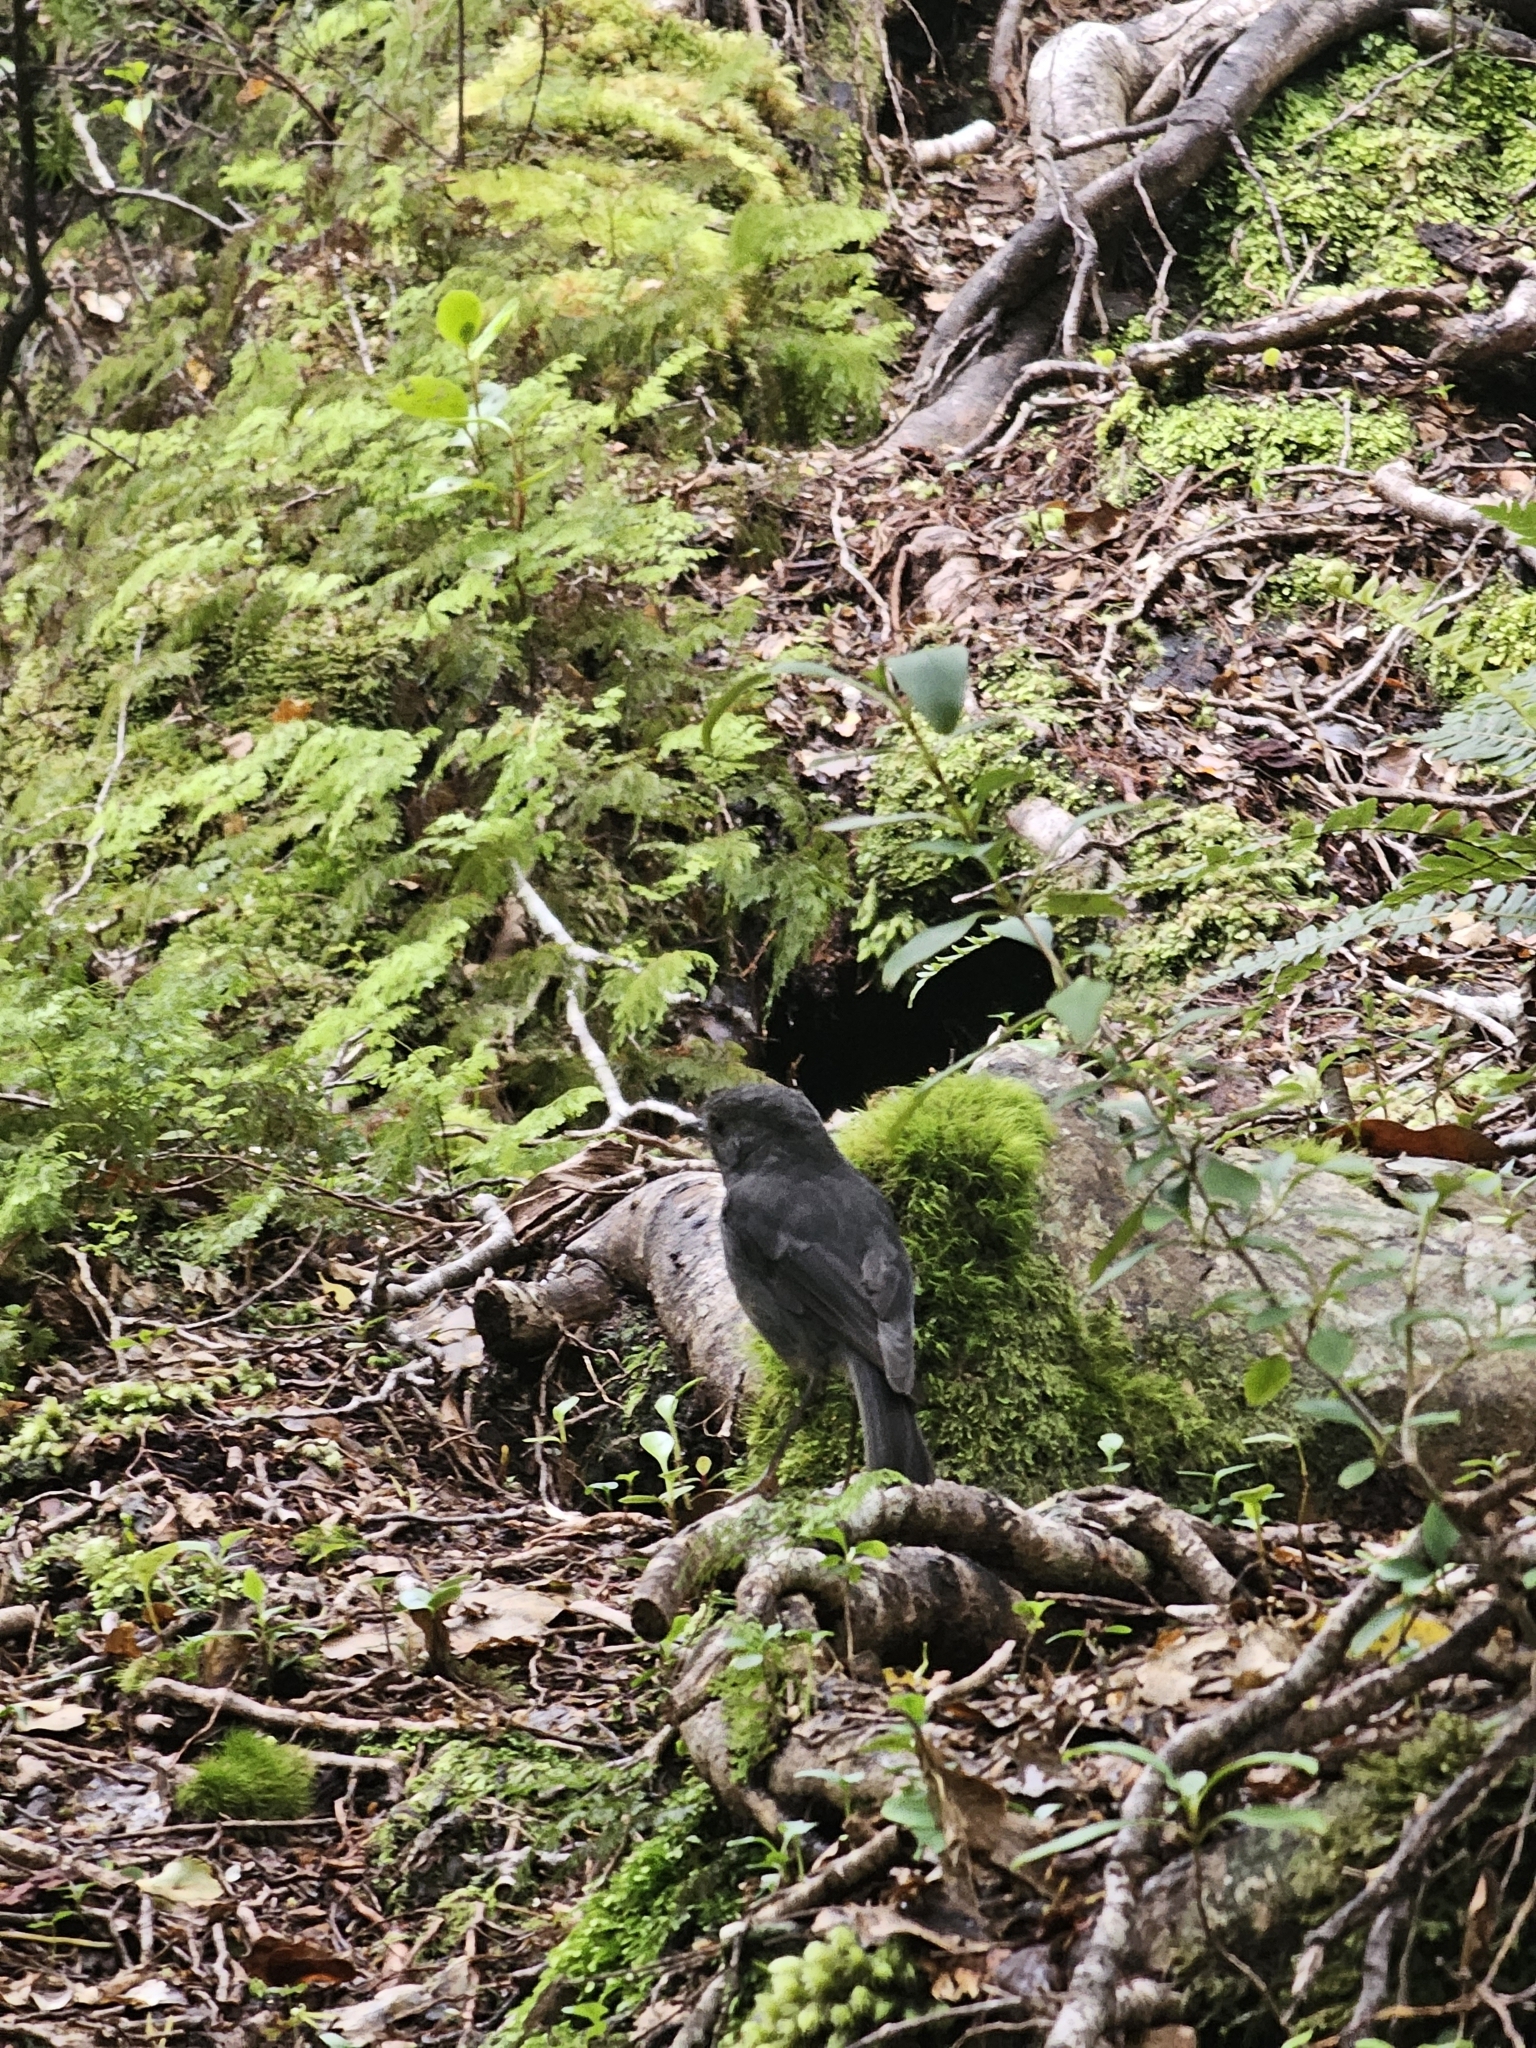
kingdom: Animalia
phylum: Chordata
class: Aves
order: Passeriformes
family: Petroicidae
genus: Petroica
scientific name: Petroica australis
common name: New zealand robin
